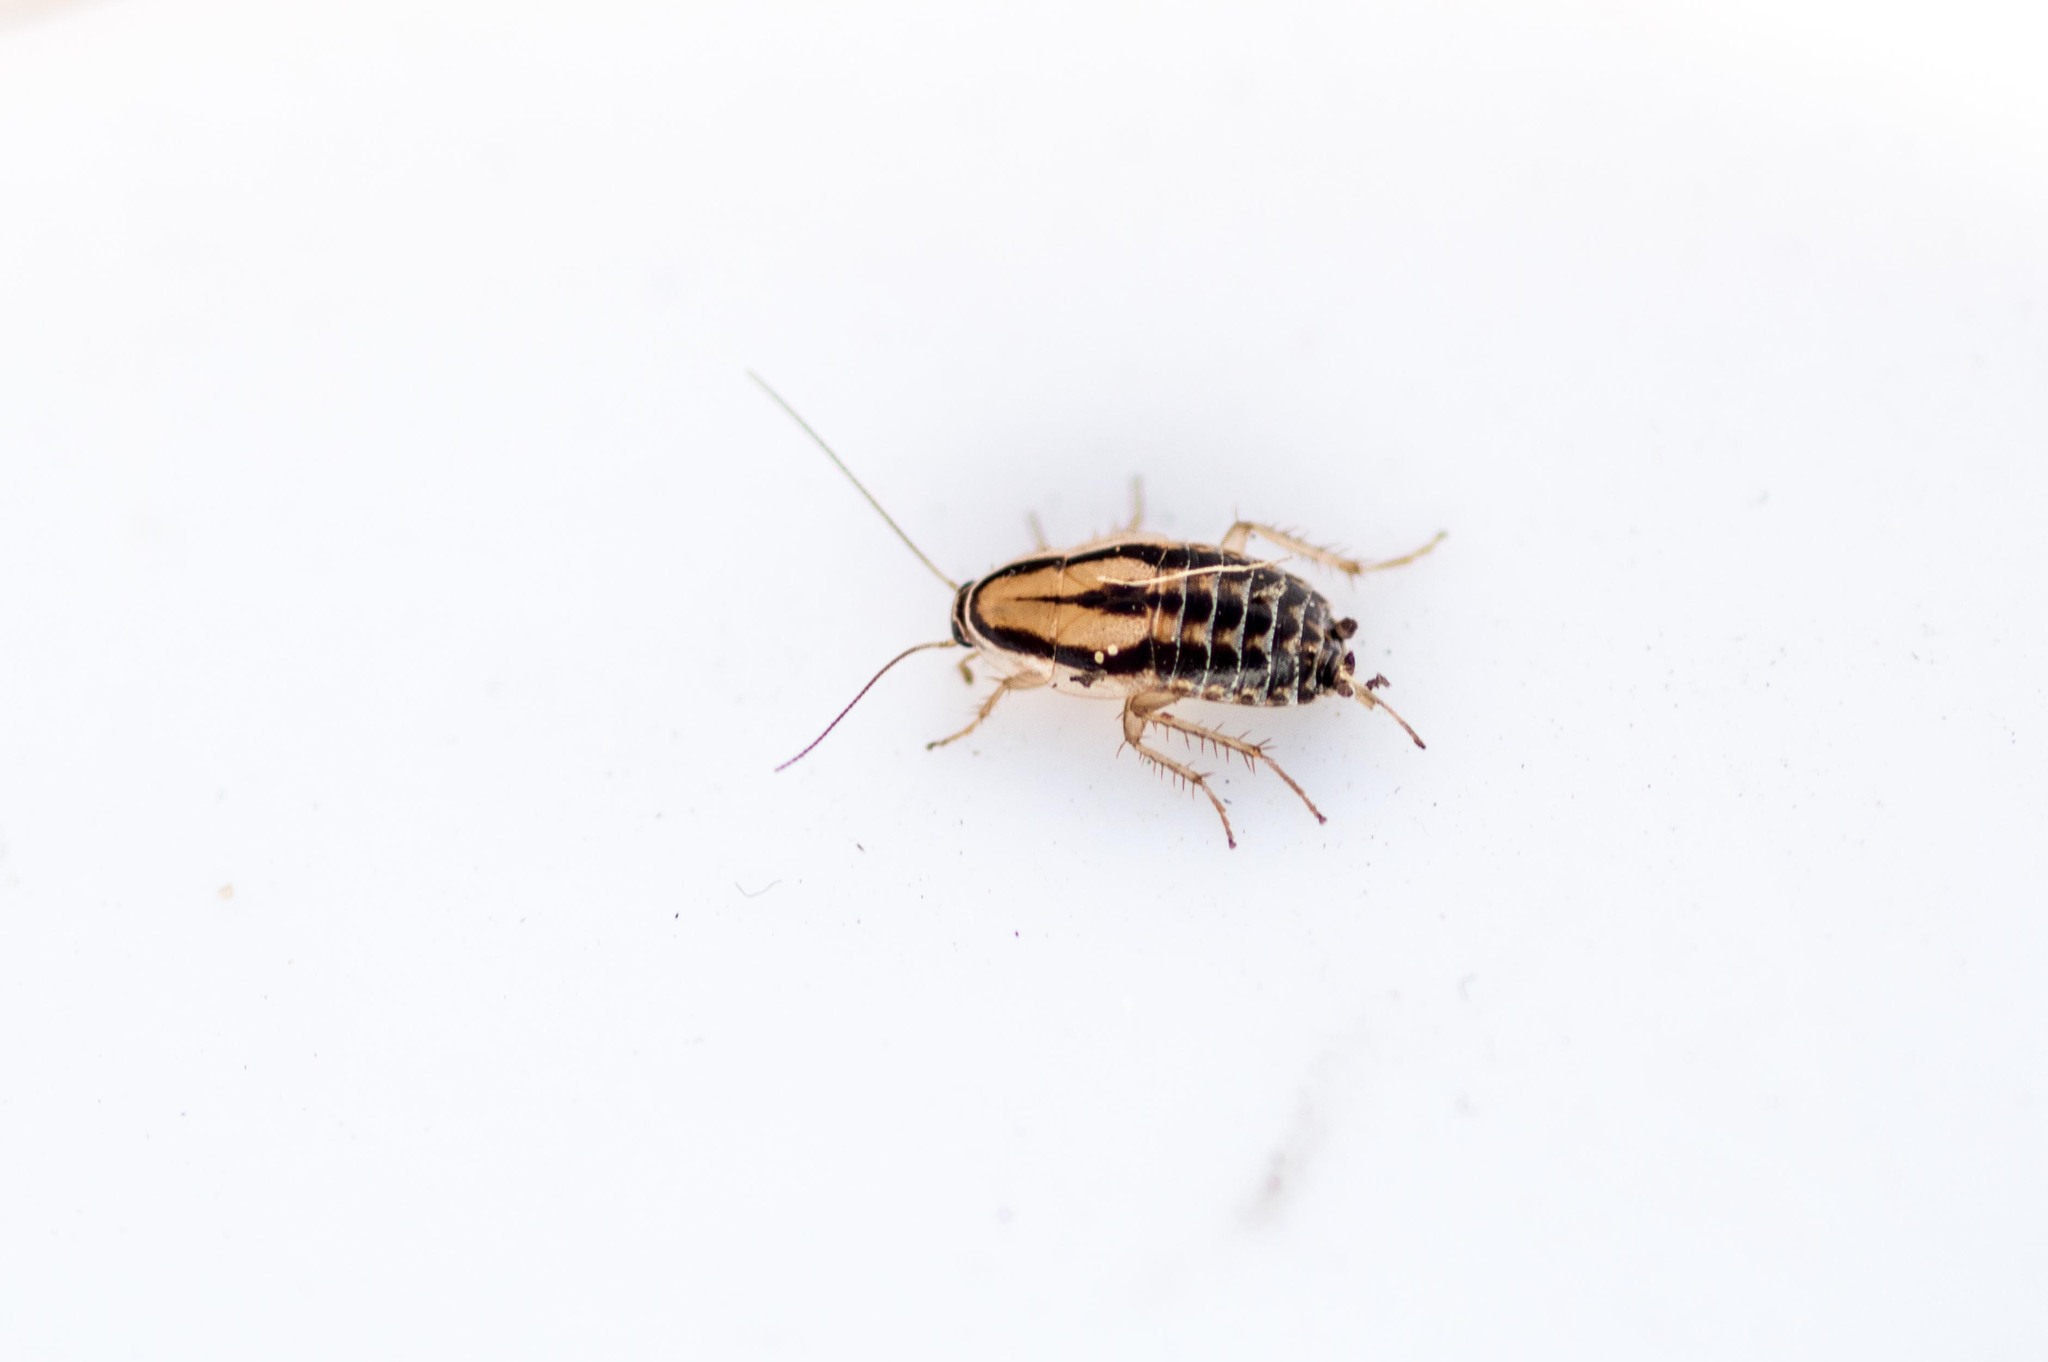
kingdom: Animalia
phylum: Arthropoda
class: Insecta
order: Blattodea
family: Ectobiidae
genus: Luridiblatta
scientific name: Luridiblatta trivittata
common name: Three-lined cockroach
